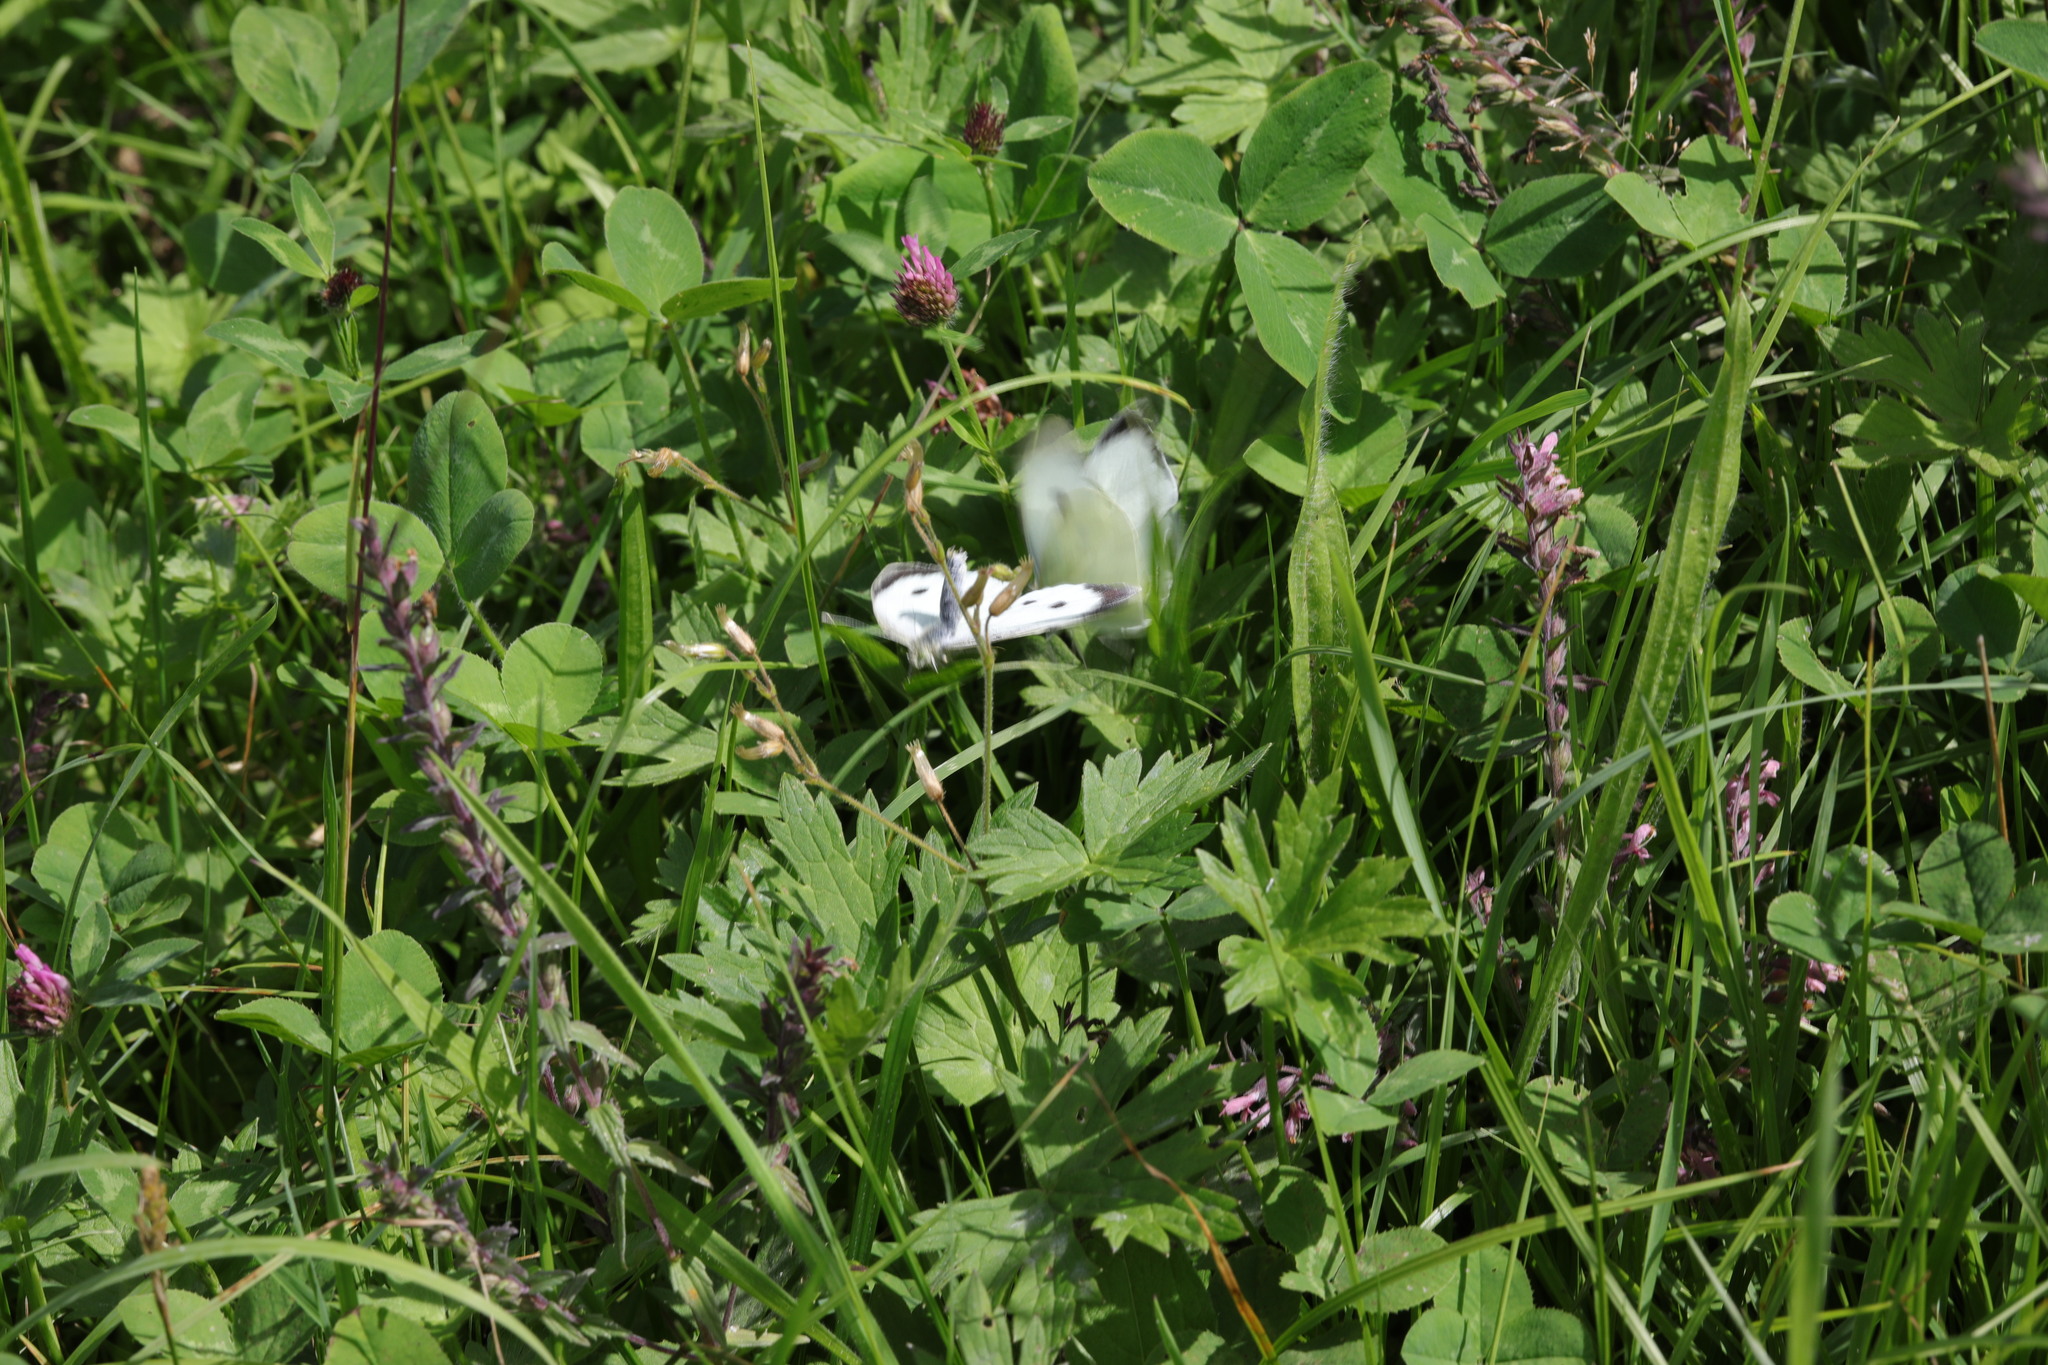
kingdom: Animalia
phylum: Arthropoda
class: Insecta
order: Lepidoptera
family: Pieridae
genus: Pieris
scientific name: Pieris brassicae
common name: Large white
